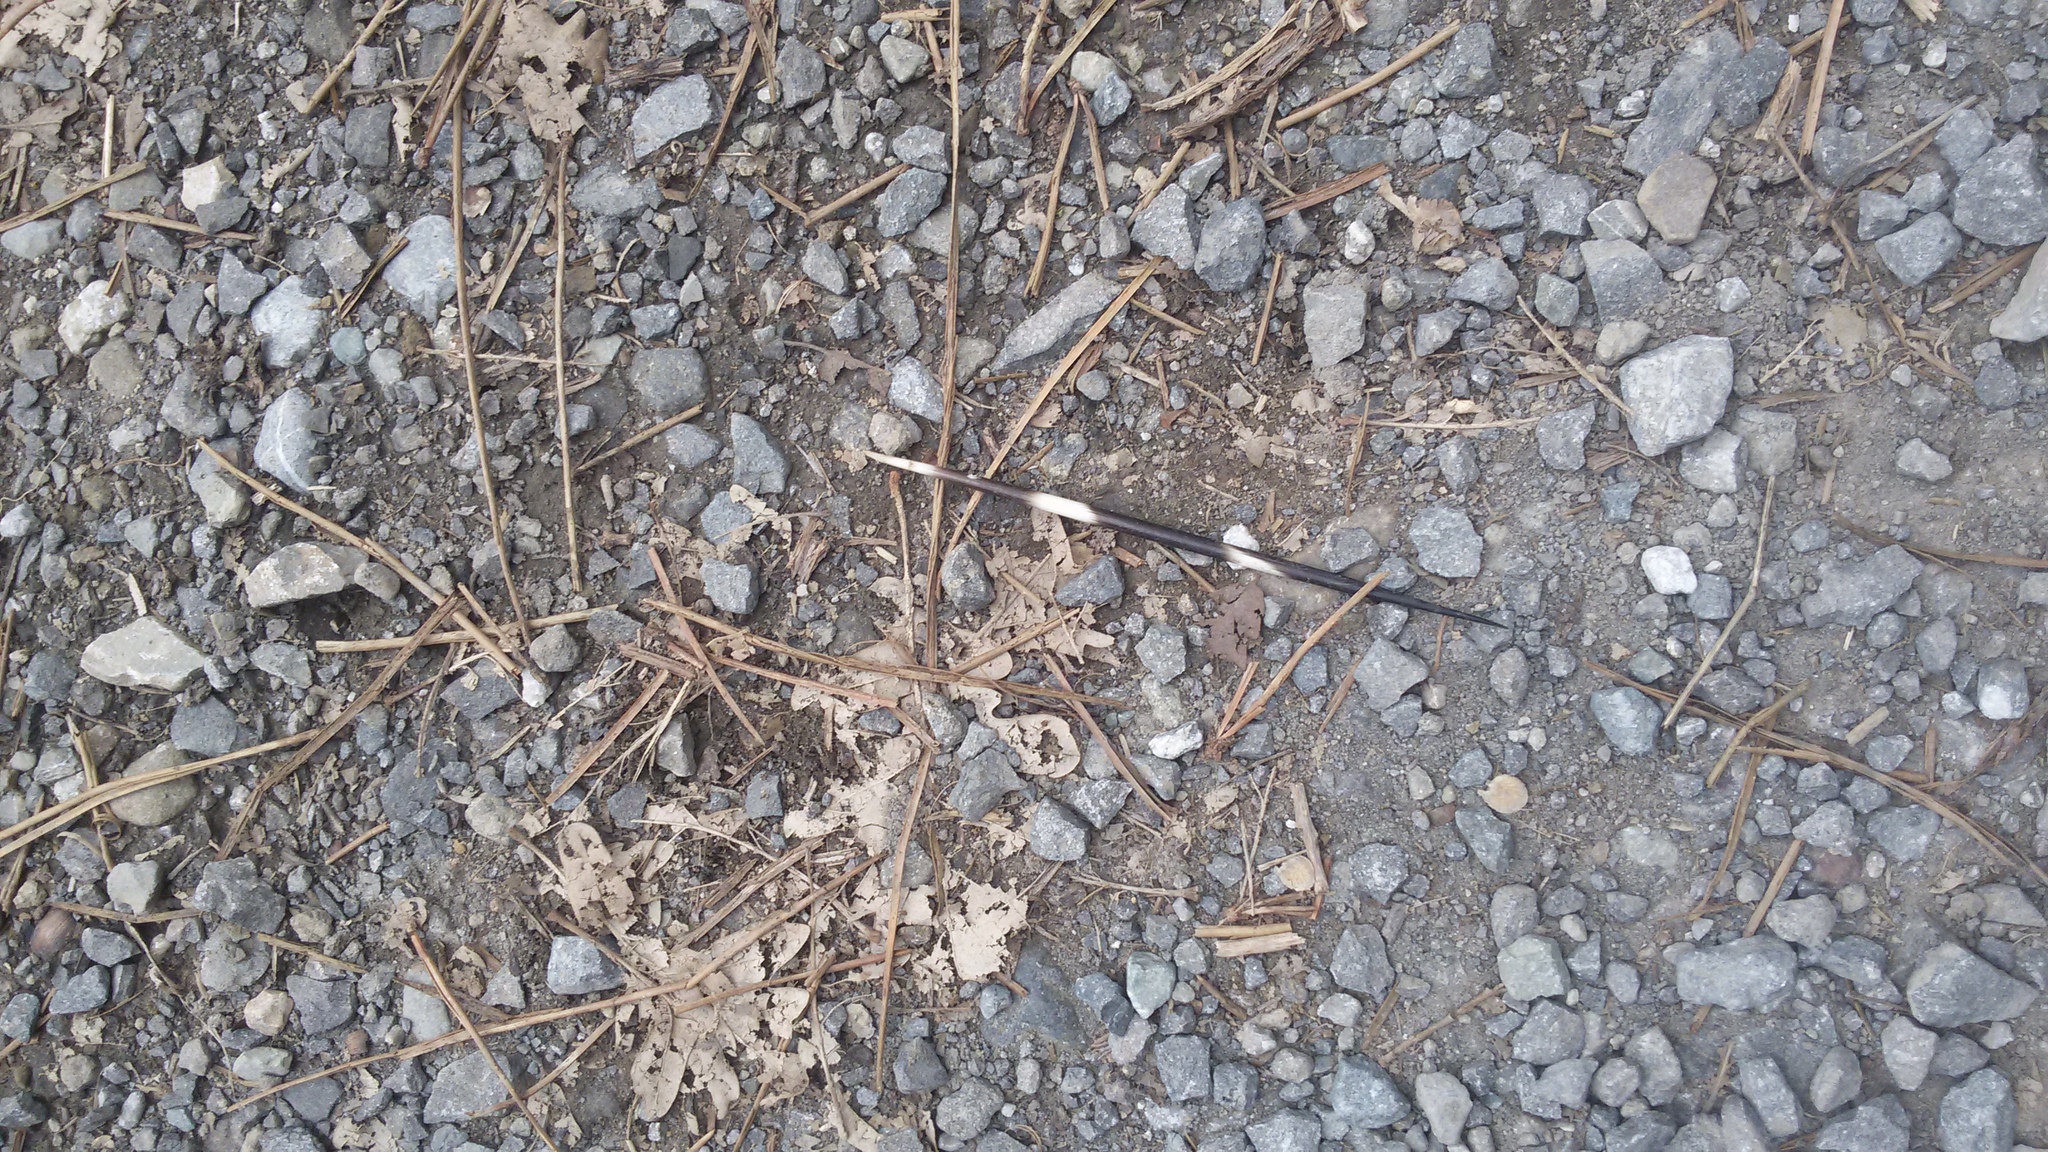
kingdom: Animalia
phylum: Chordata
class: Mammalia
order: Rodentia
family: Hystricidae
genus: Hystrix
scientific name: Hystrix cristata
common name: Crested porcupine
